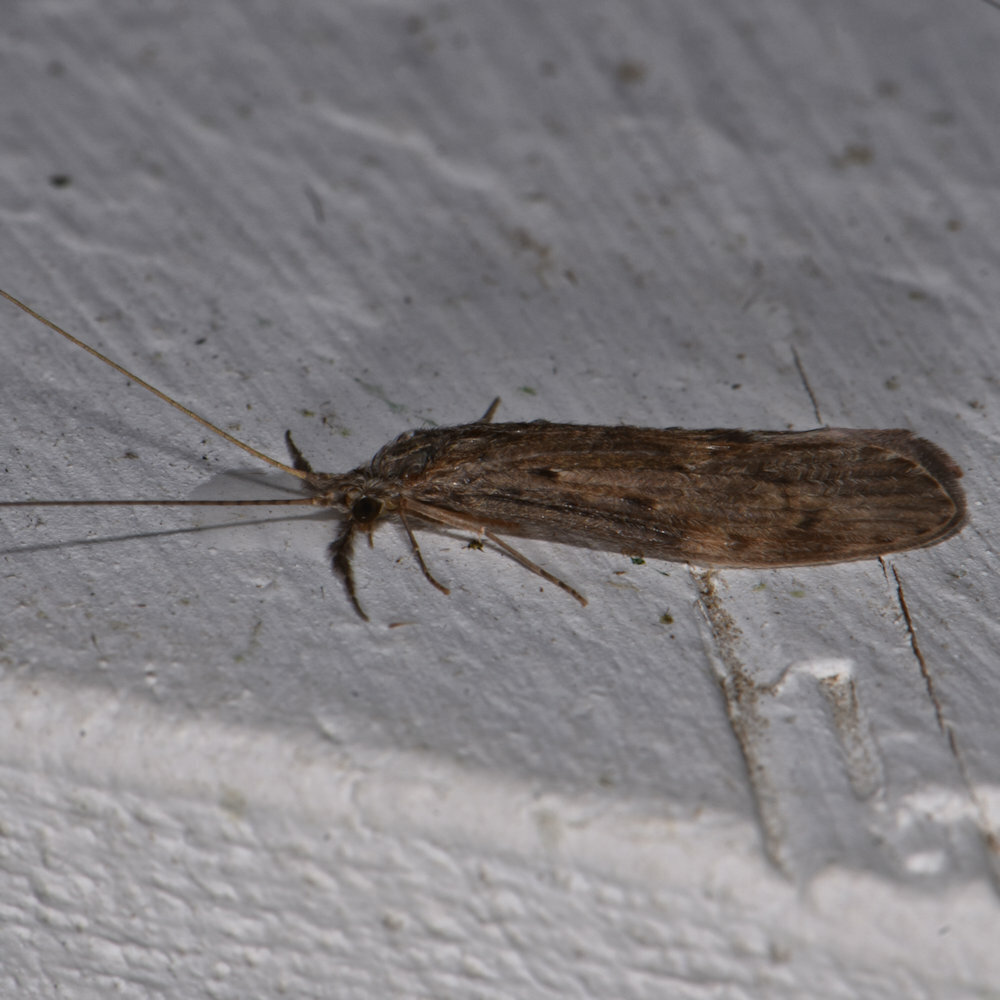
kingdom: Animalia
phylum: Arthropoda
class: Insecta
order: Trichoptera
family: Leptoceridae
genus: Oecetis
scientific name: Oecetis cinerascens
